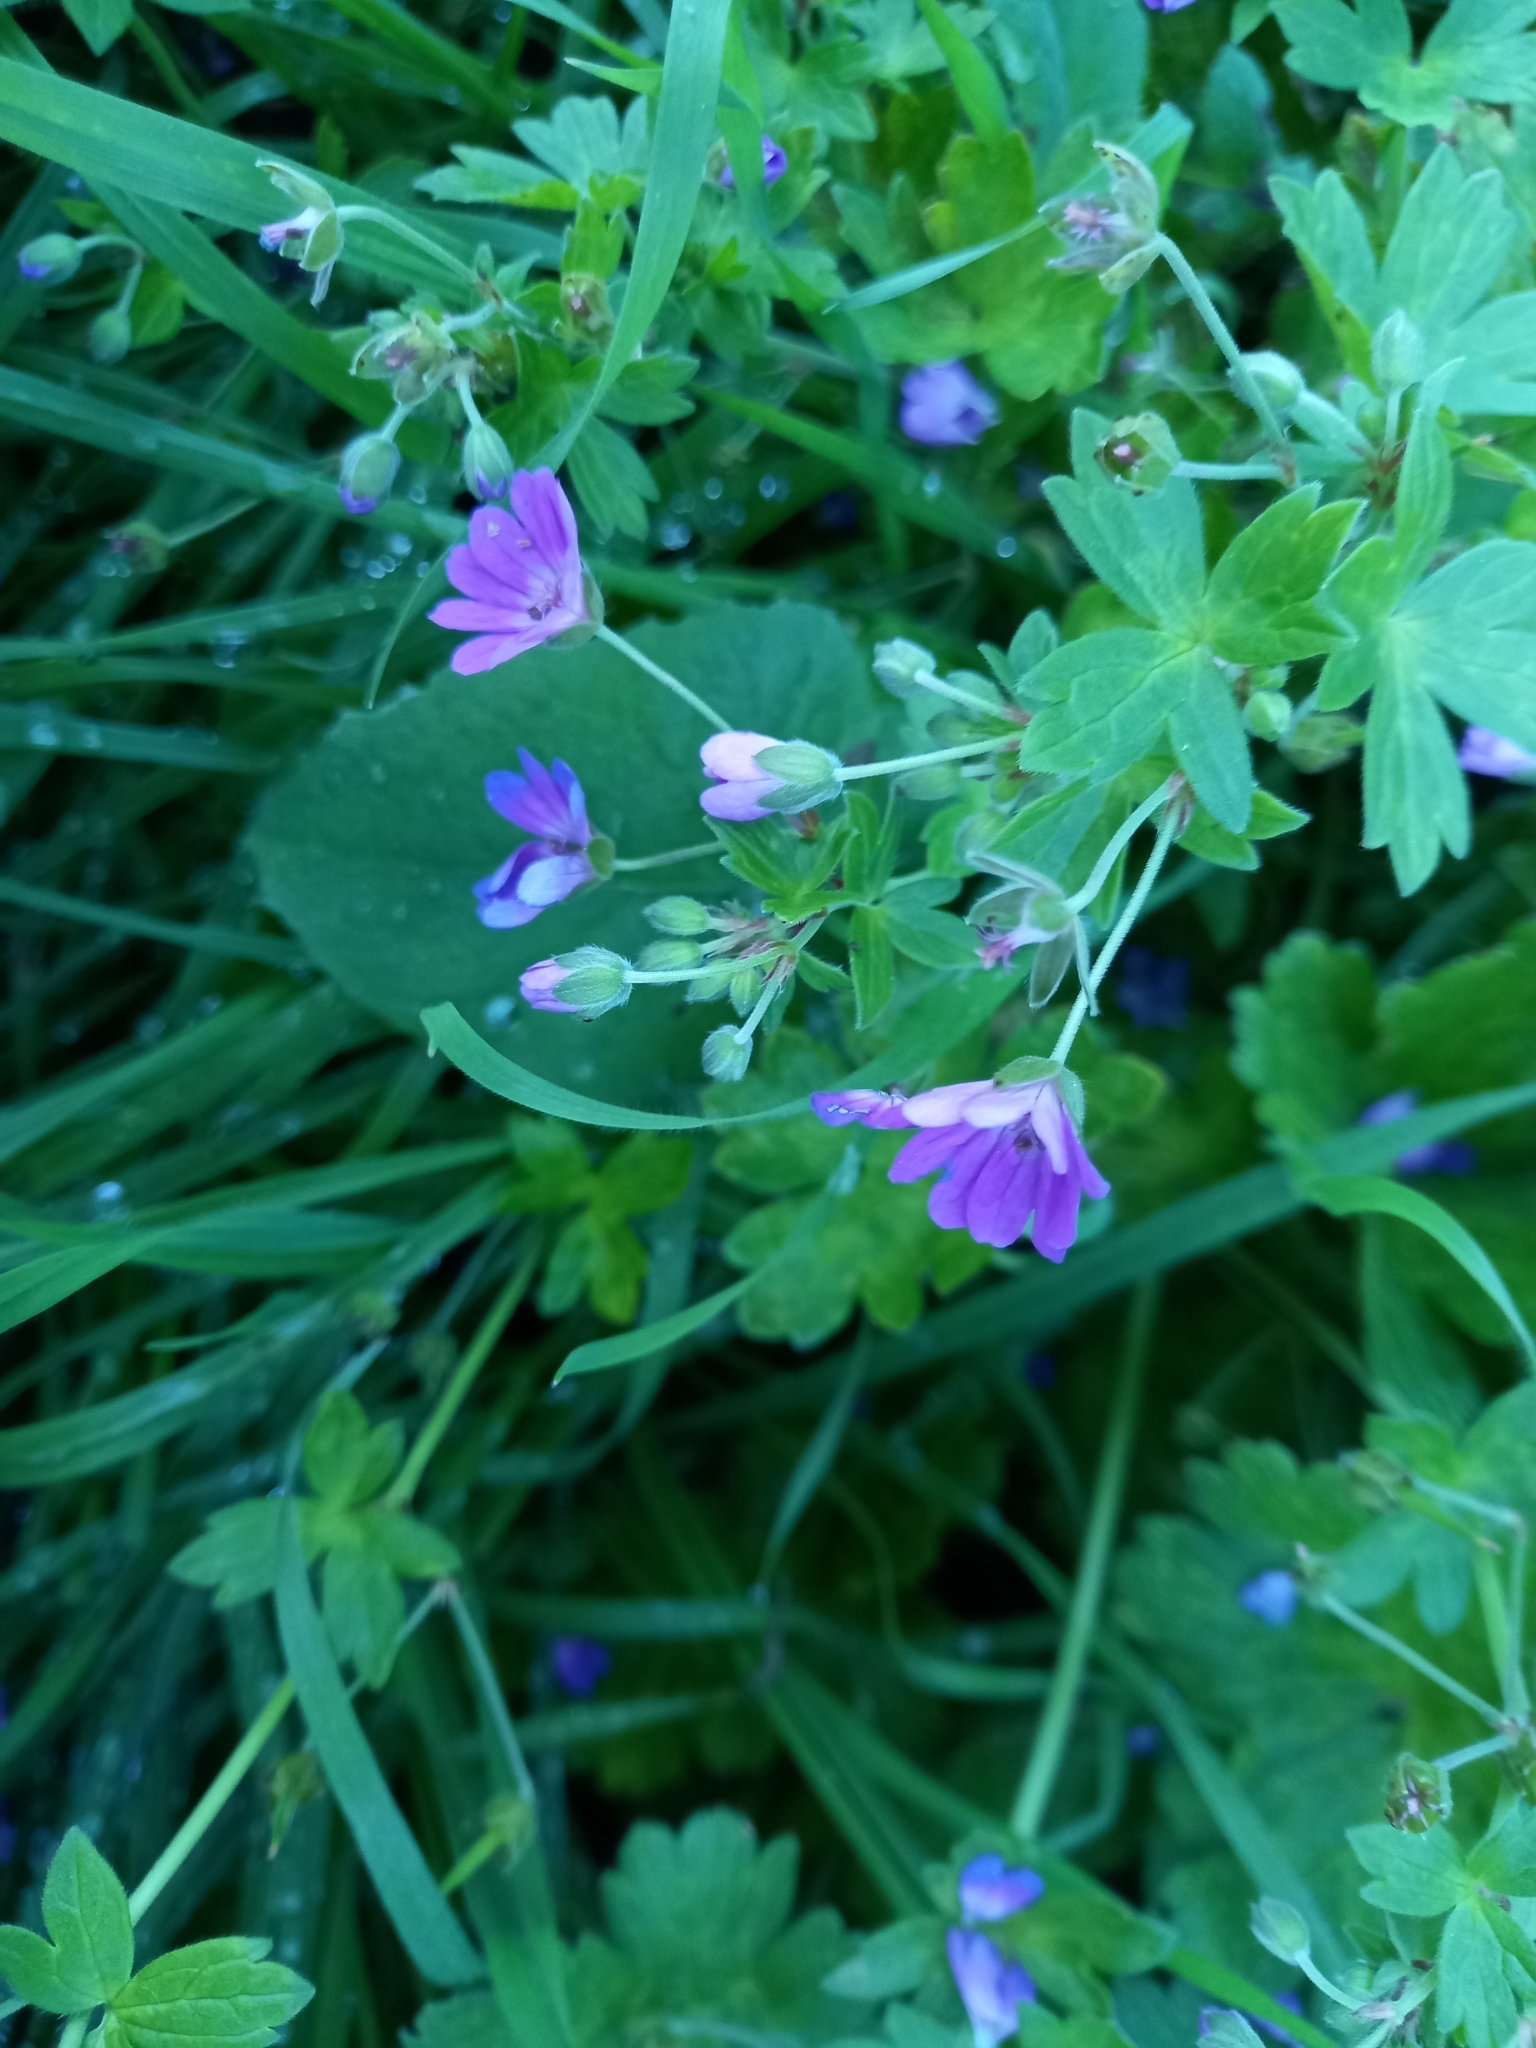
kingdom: Plantae
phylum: Tracheophyta
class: Magnoliopsida
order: Geraniales
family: Geraniaceae
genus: Geranium
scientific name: Geranium pyrenaicum
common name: Hedgerow crane's-bill
